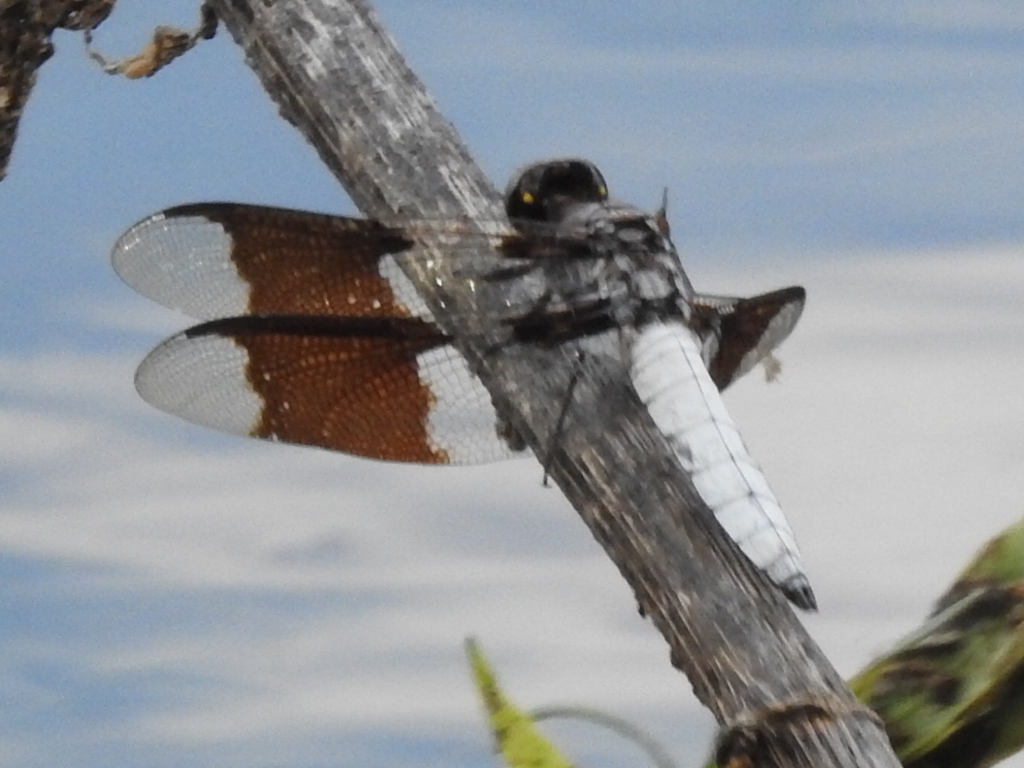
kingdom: Animalia
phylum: Arthropoda
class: Insecta
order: Odonata
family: Libellulidae
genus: Plathemis
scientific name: Plathemis lydia
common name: Common whitetail
